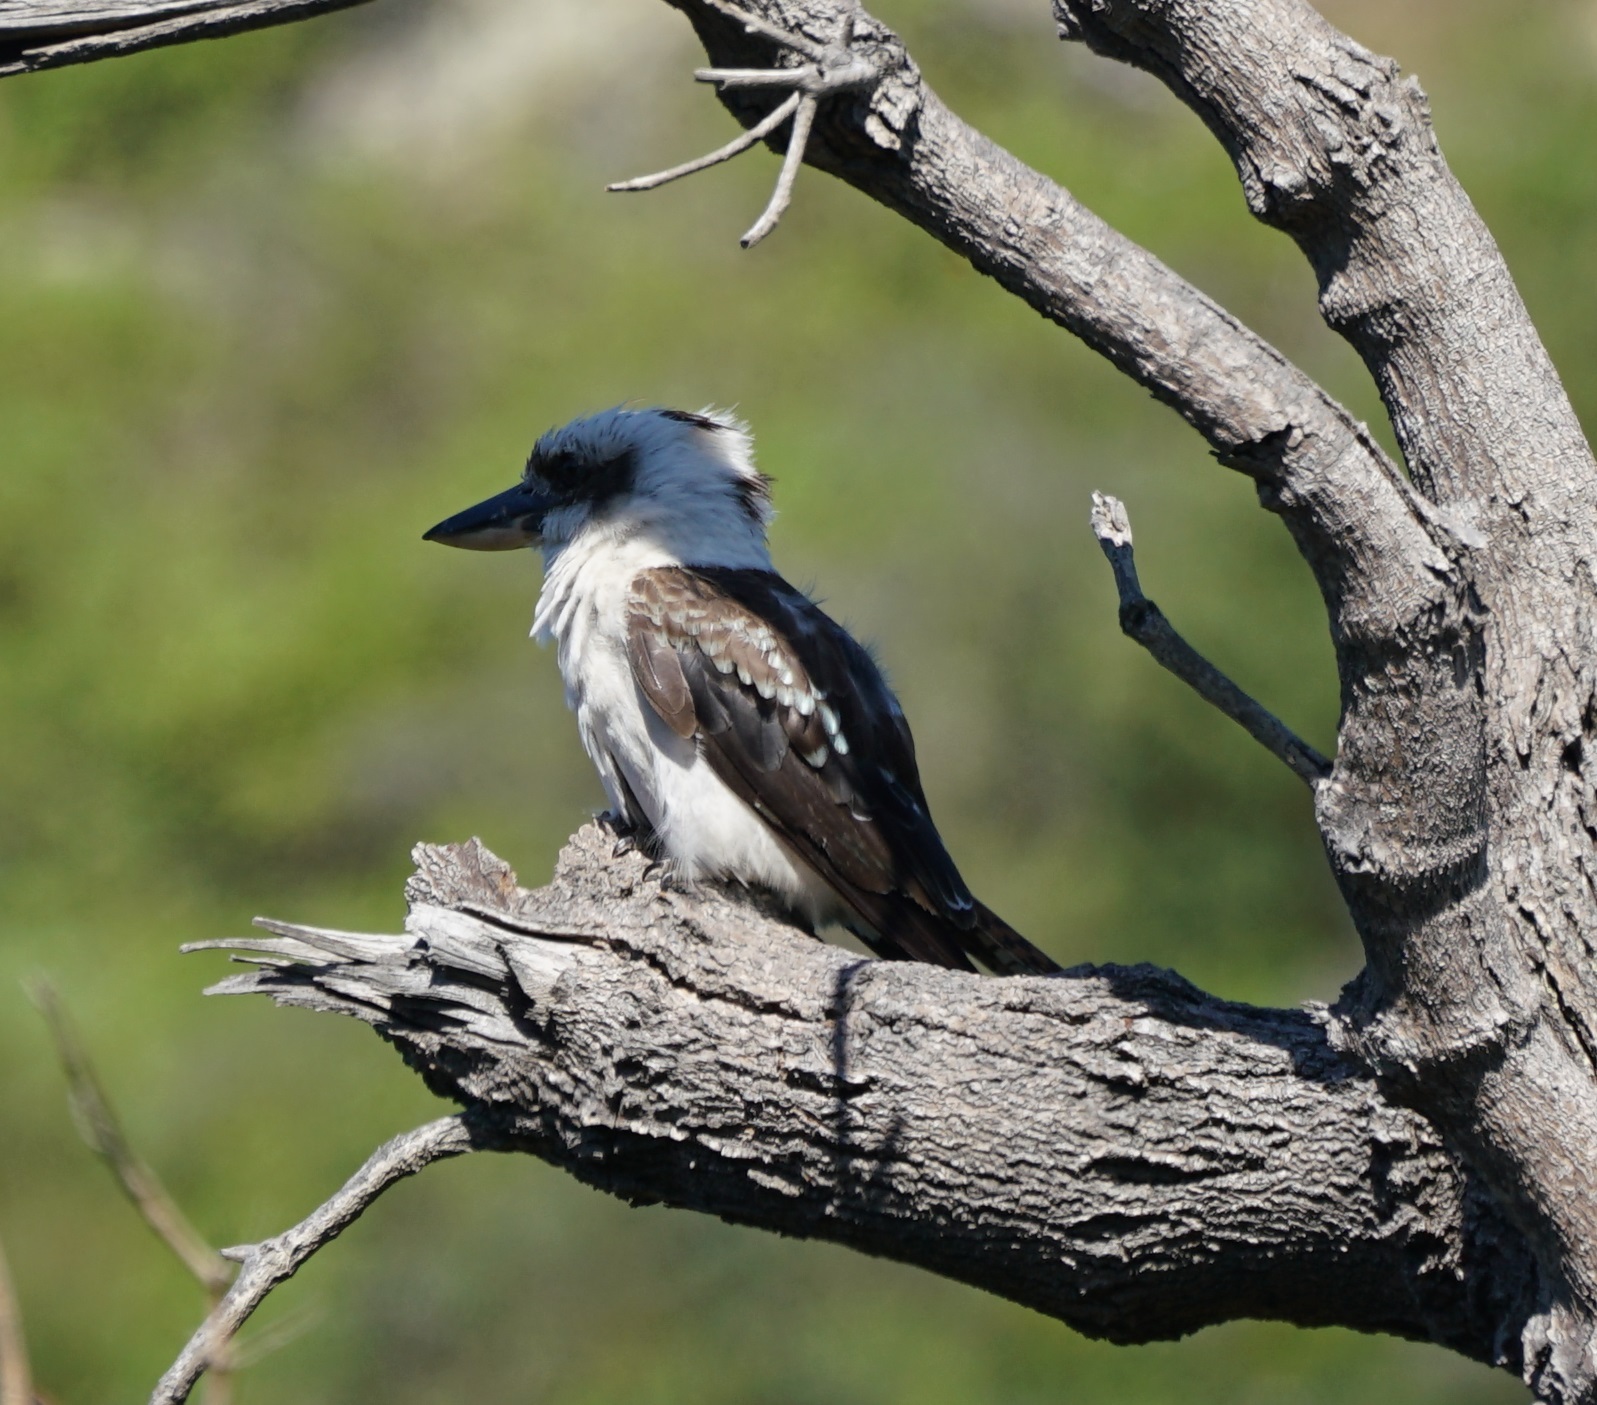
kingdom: Animalia
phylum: Chordata
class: Aves
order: Coraciiformes
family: Alcedinidae
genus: Dacelo
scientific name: Dacelo novaeguineae
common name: Laughing kookaburra
